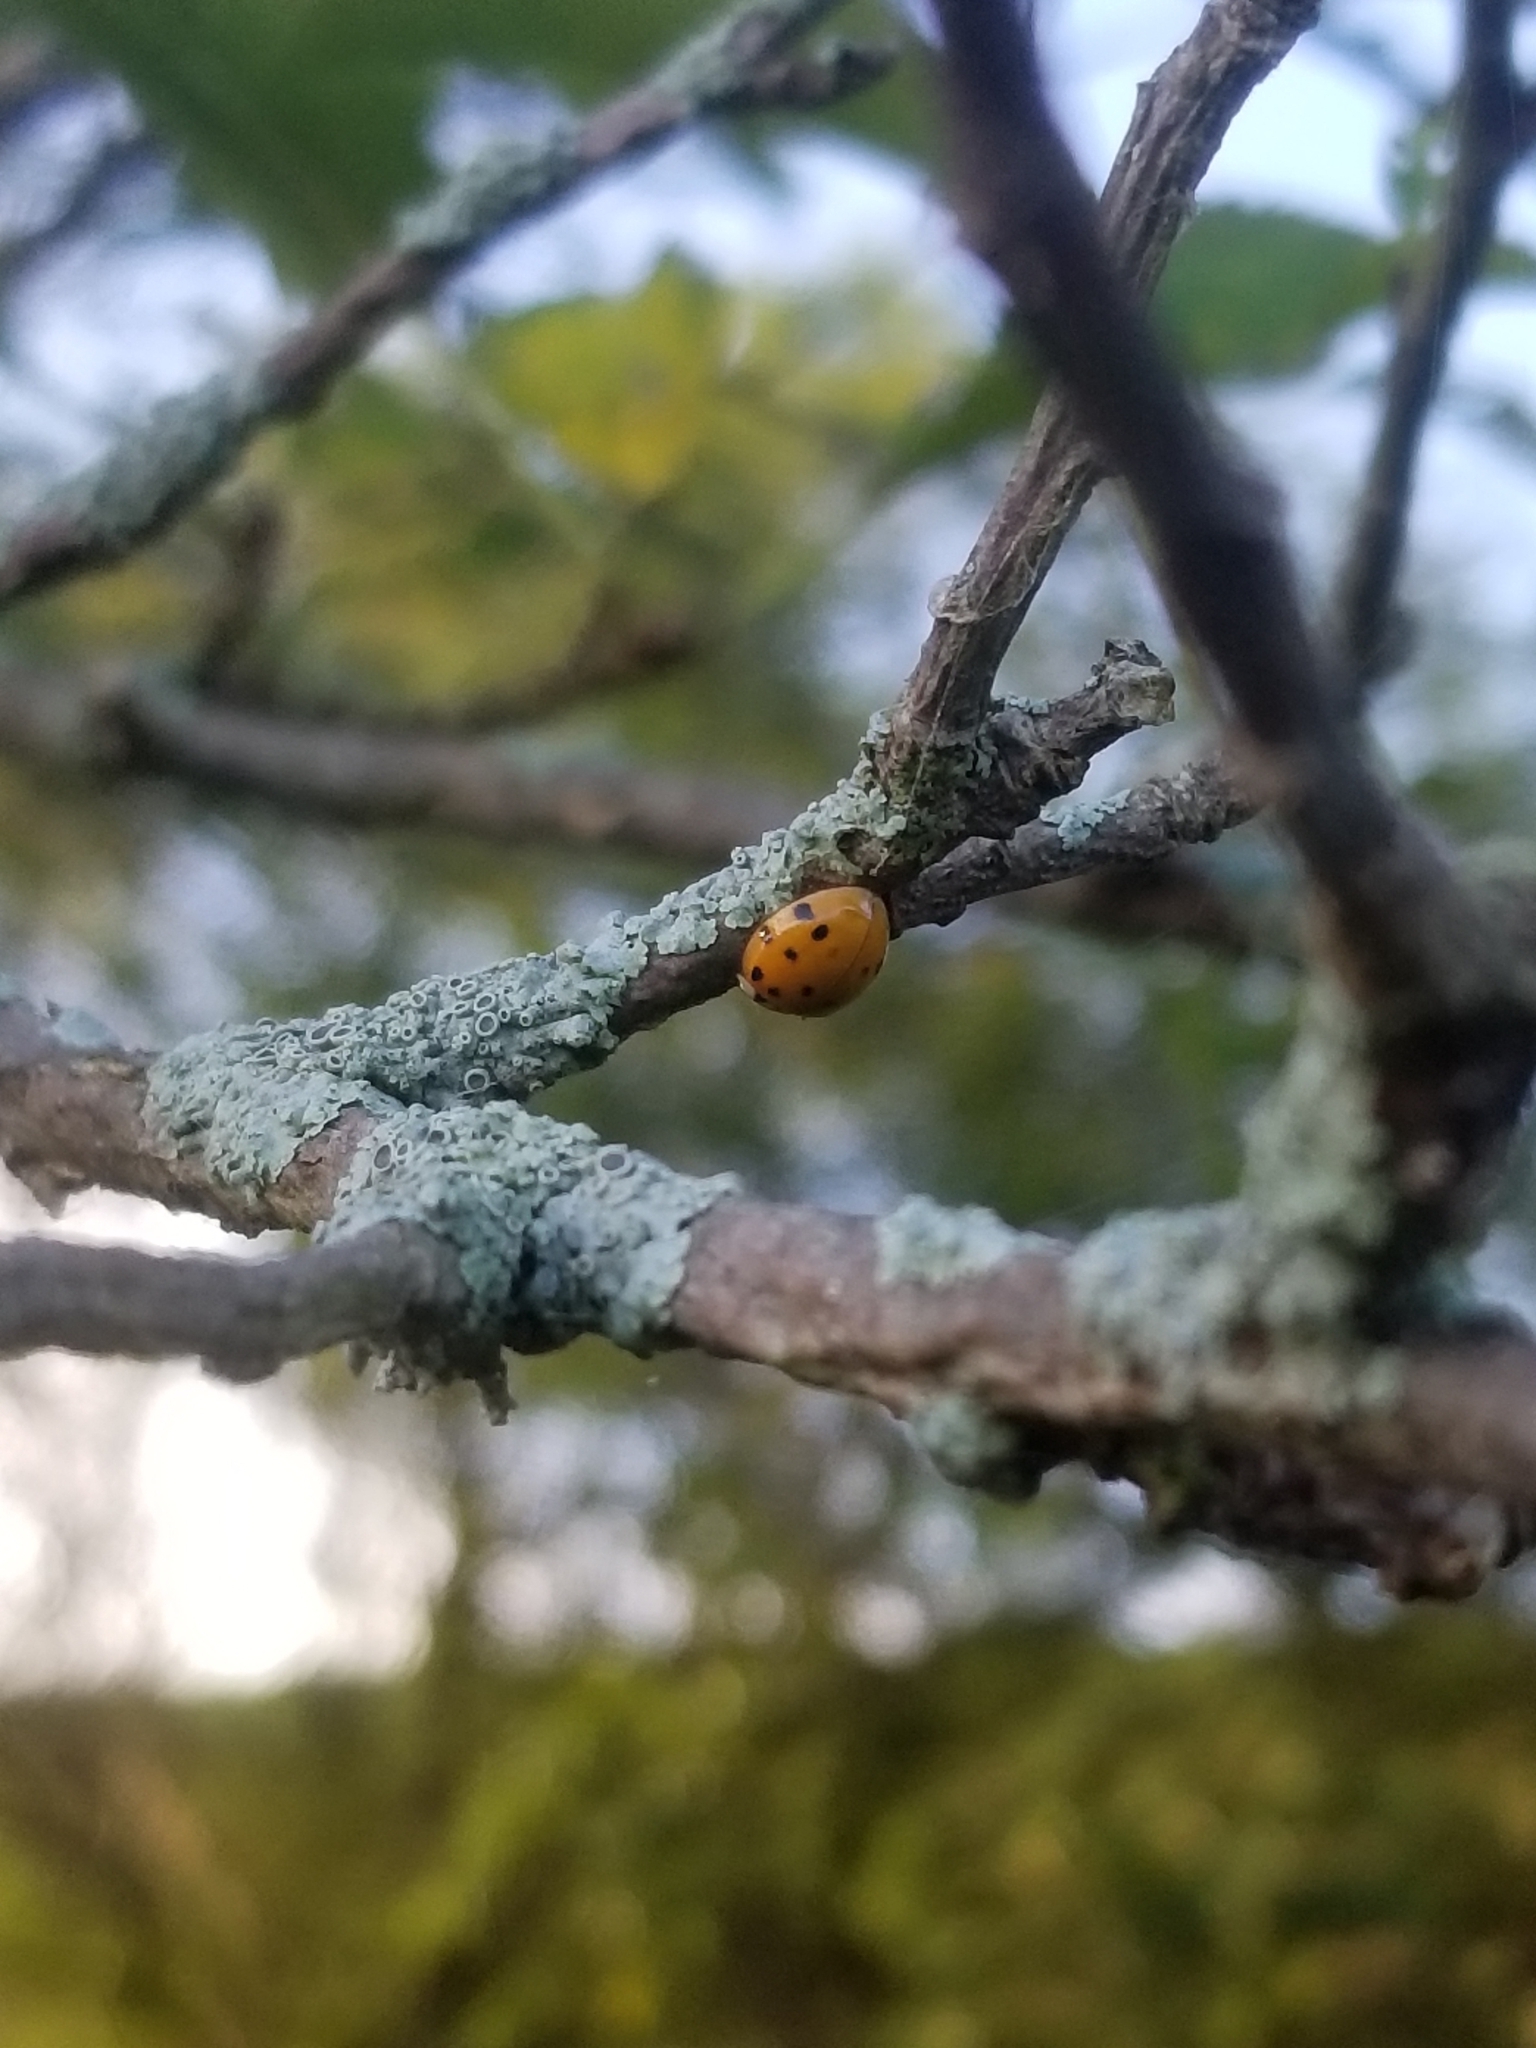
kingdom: Animalia
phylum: Arthropoda
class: Insecta
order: Coleoptera
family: Coccinellidae
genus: Harmonia
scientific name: Harmonia axyridis
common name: Harlequin ladybird
